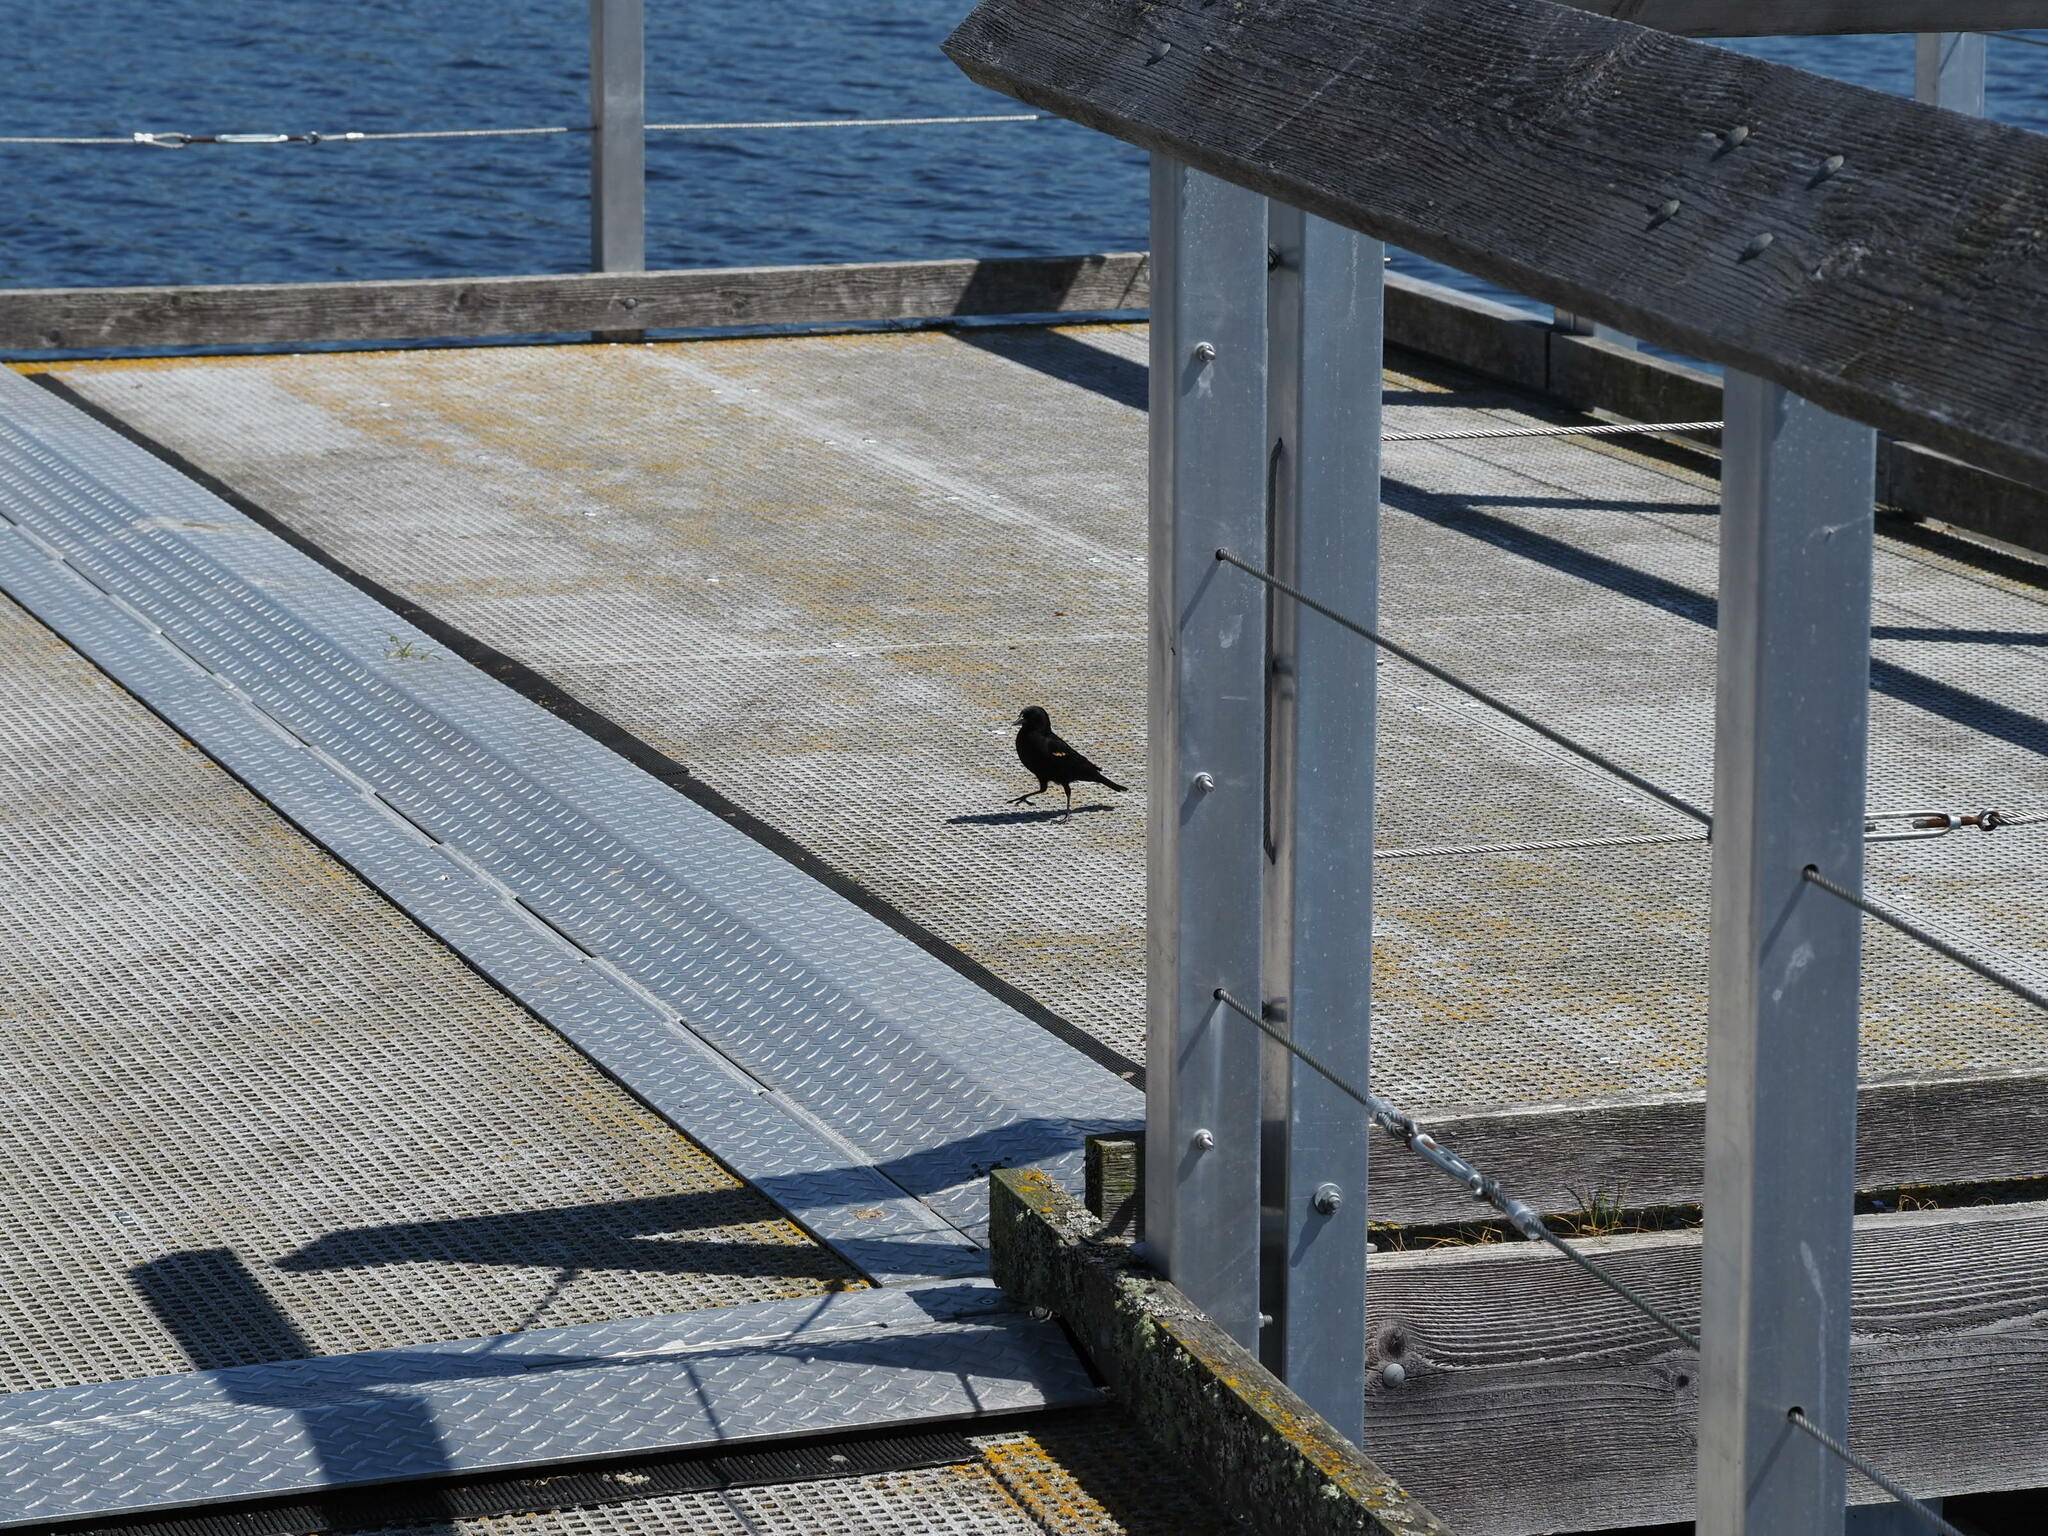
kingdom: Animalia
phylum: Chordata
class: Aves
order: Passeriformes
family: Icteridae
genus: Agelaius
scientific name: Agelaius phoeniceus
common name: Red-winged blackbird
